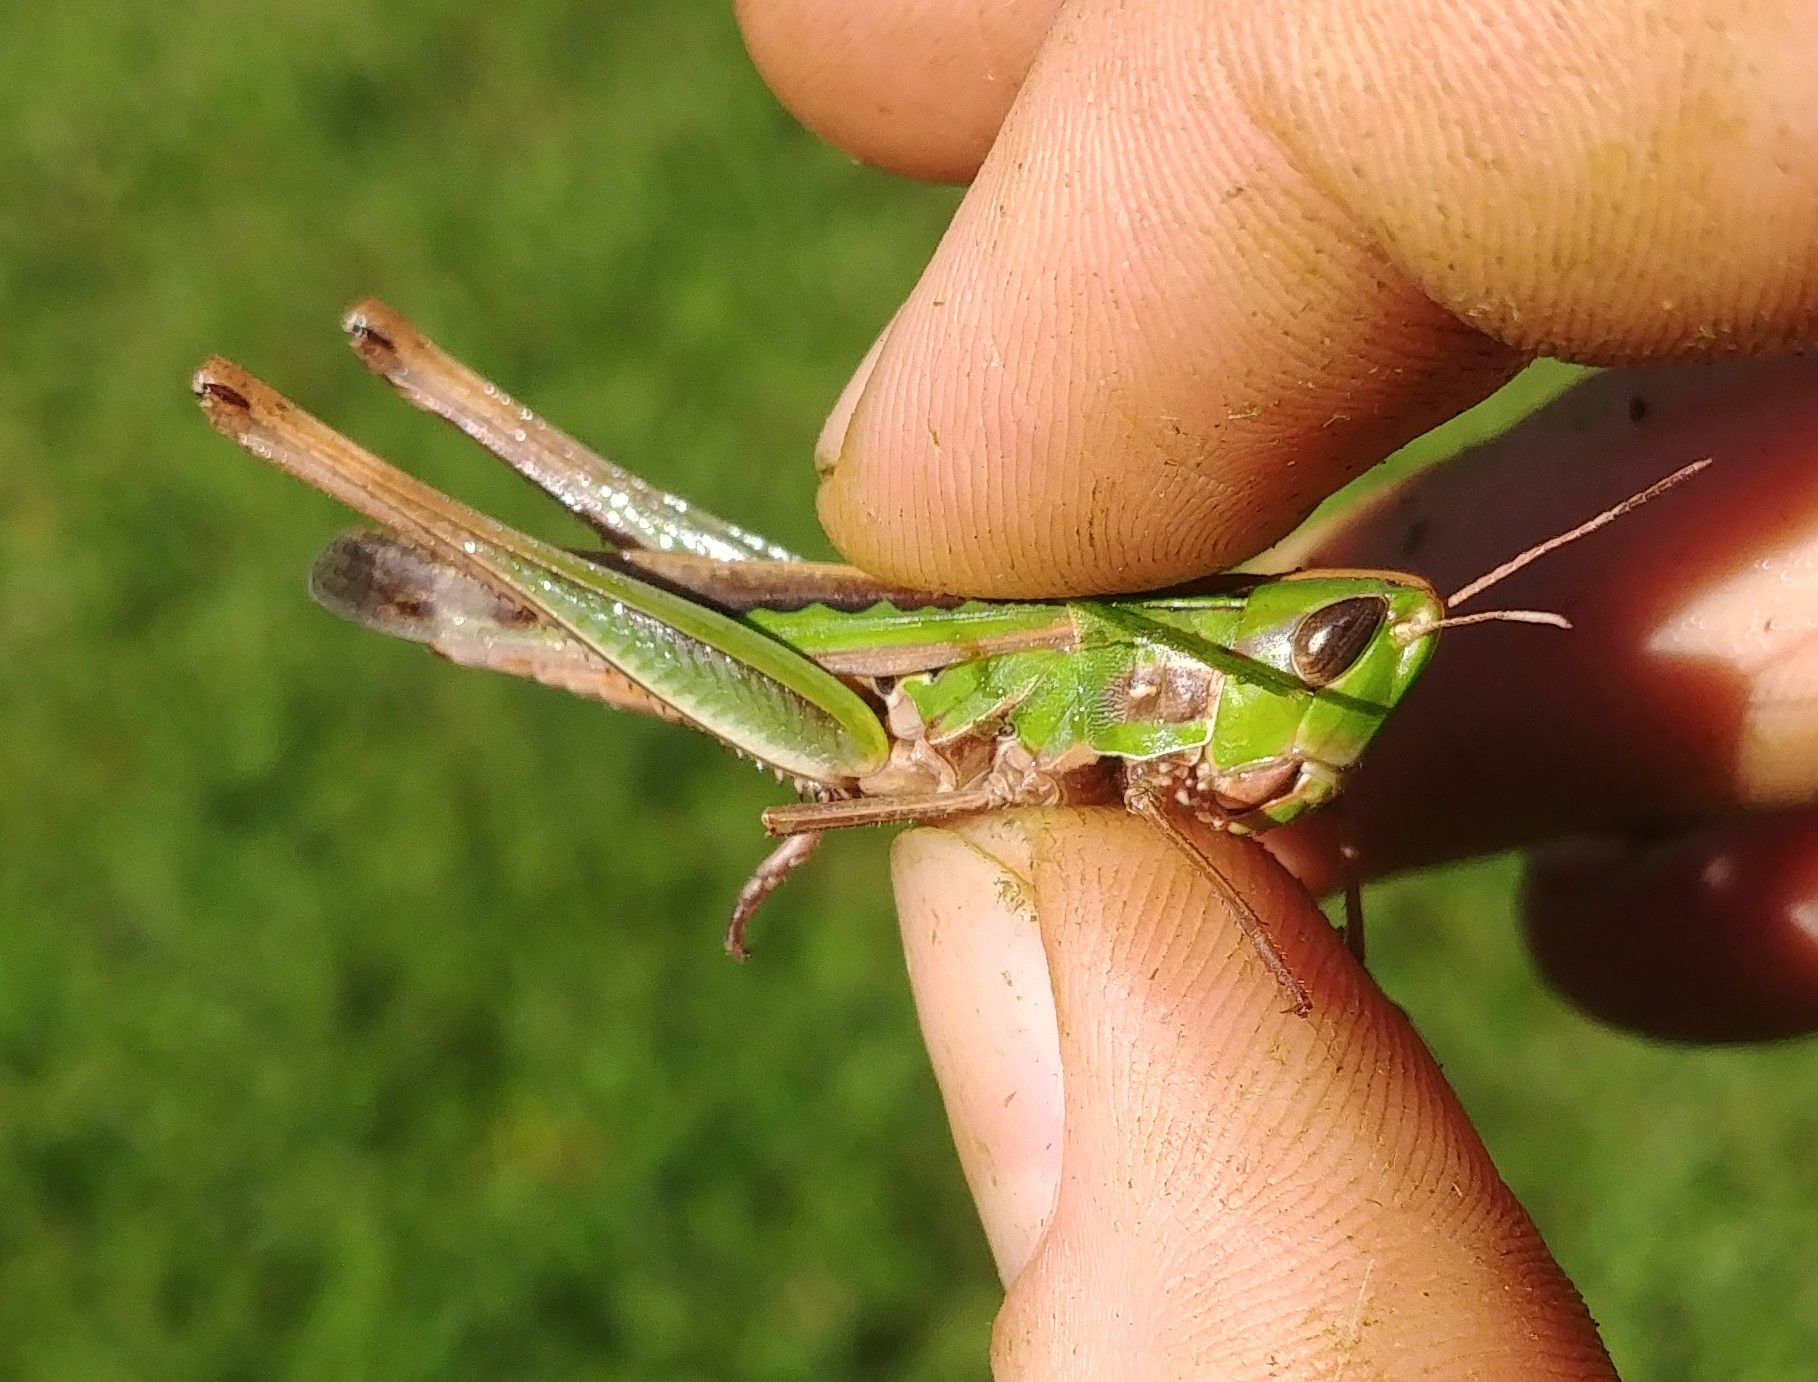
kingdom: Animalia
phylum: Arthropoda
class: Insecta
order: Orthoptera
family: Acrididae
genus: Syrbula
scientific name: Syrbula admirabilis
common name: Handsome grasshopper
